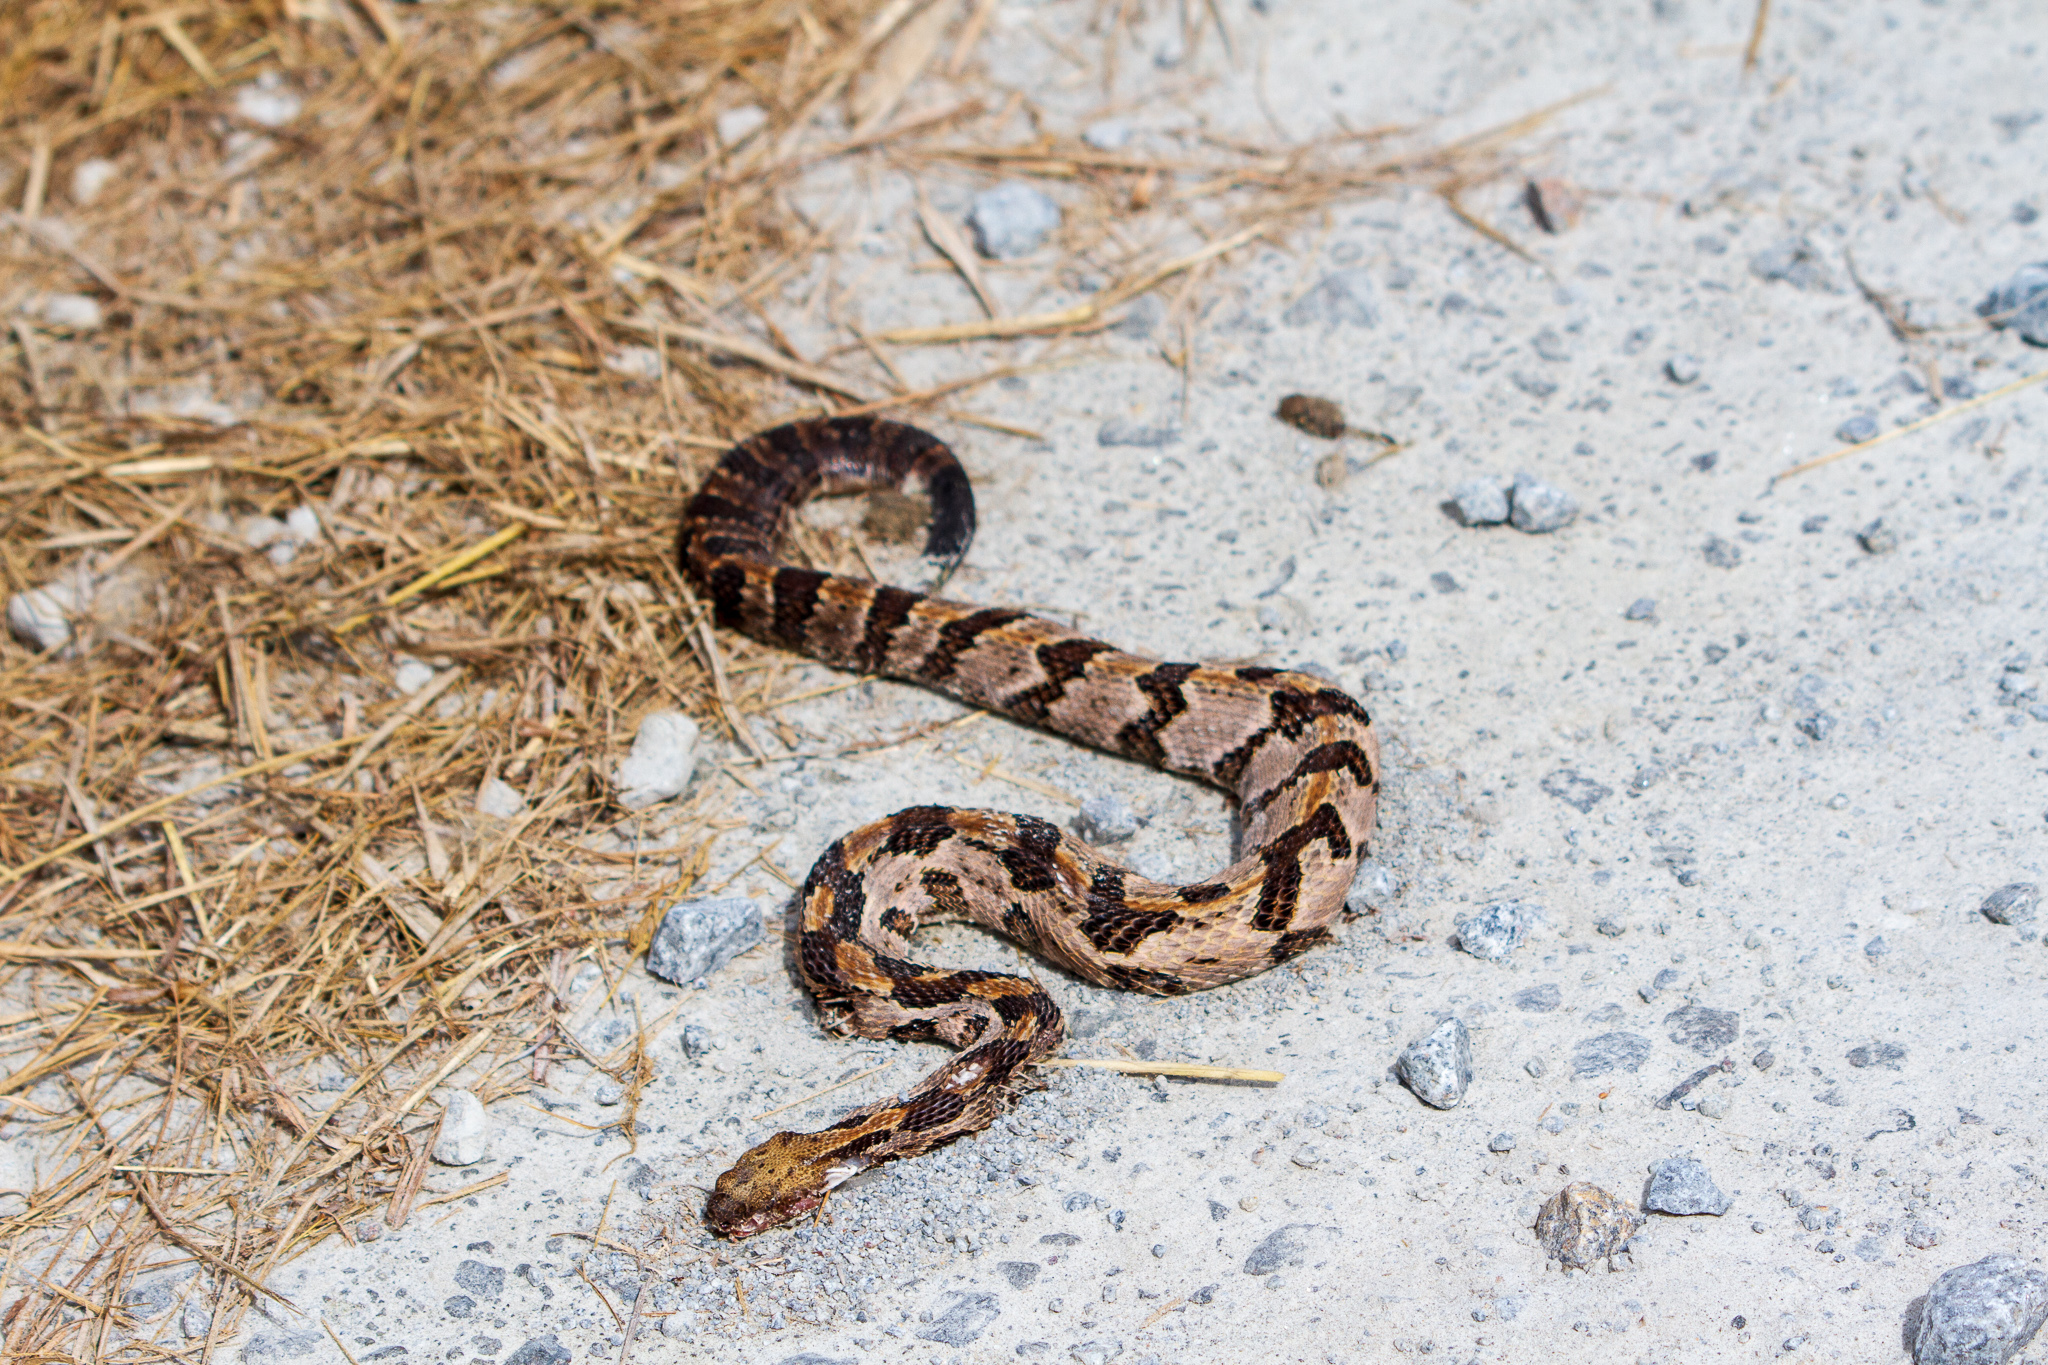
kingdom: Animalia
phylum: Chordata
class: Squamata
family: Viperidae
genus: Crotalus
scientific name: Crotalus horridus
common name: Timber rattlesnake
